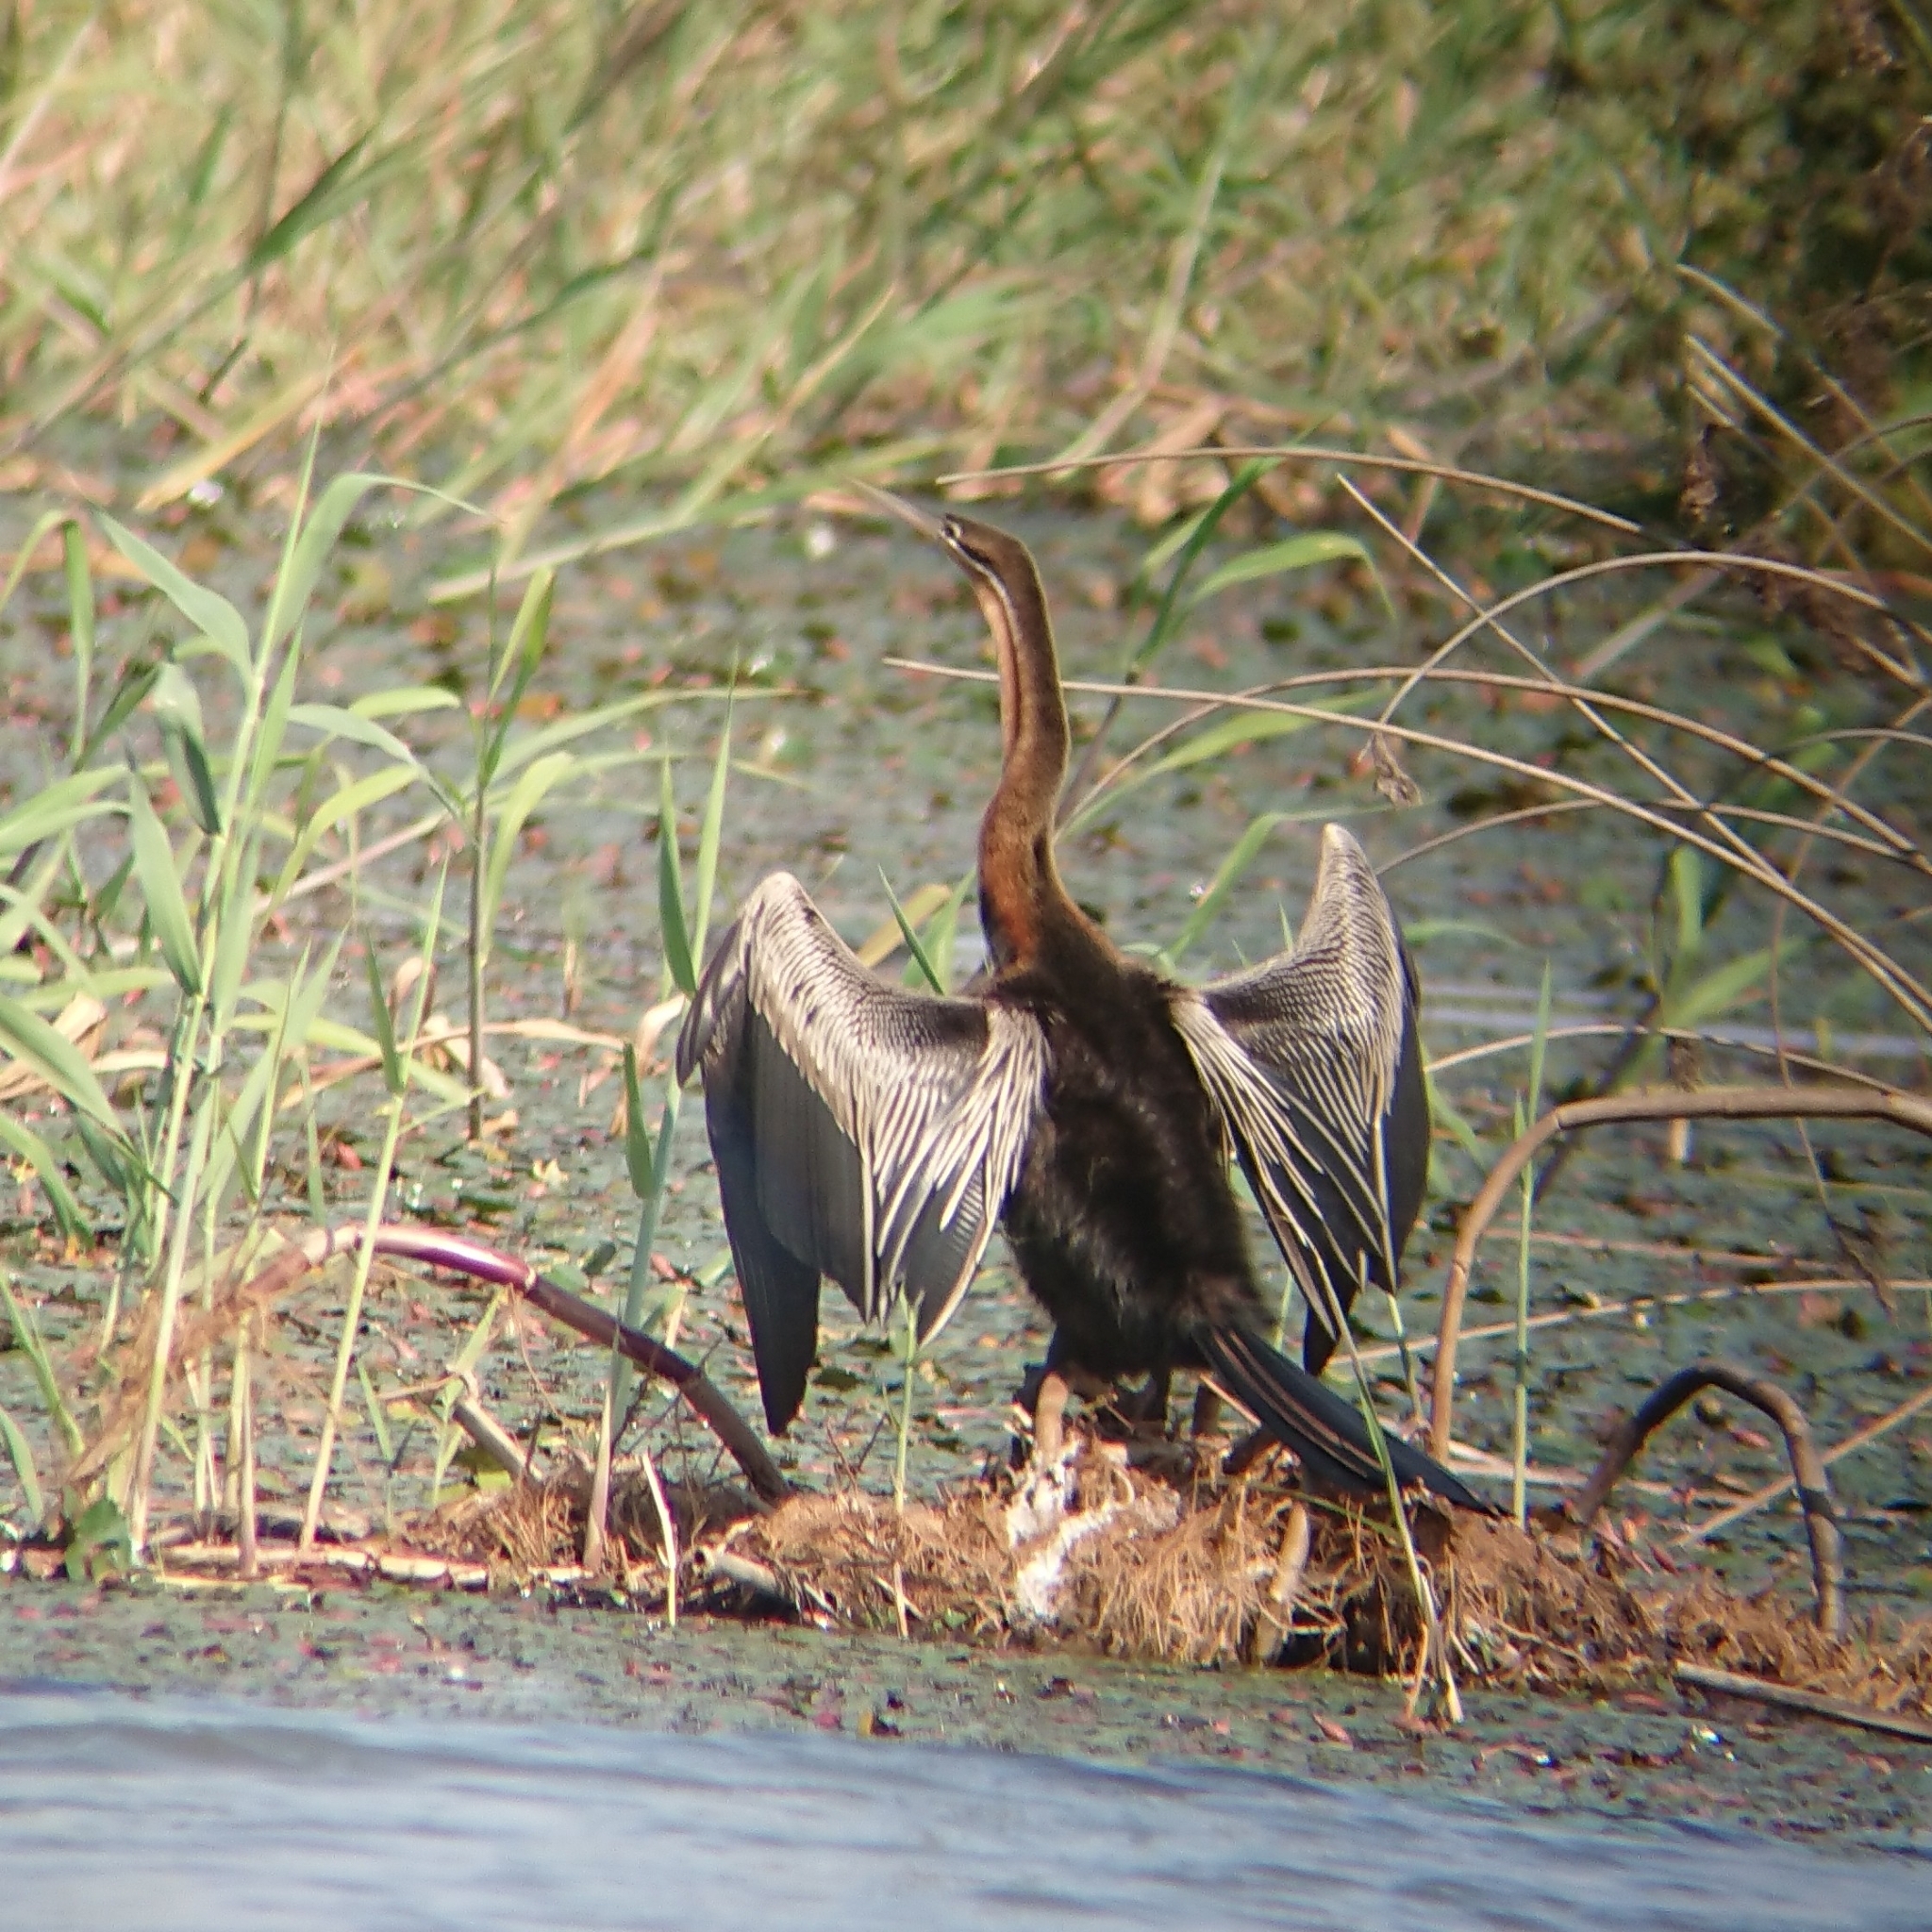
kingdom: Animalia
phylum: Chordata
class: Aves
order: Suliformes
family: Anhingidae
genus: Anhinga
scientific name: Anhinga rufa
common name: African darter
